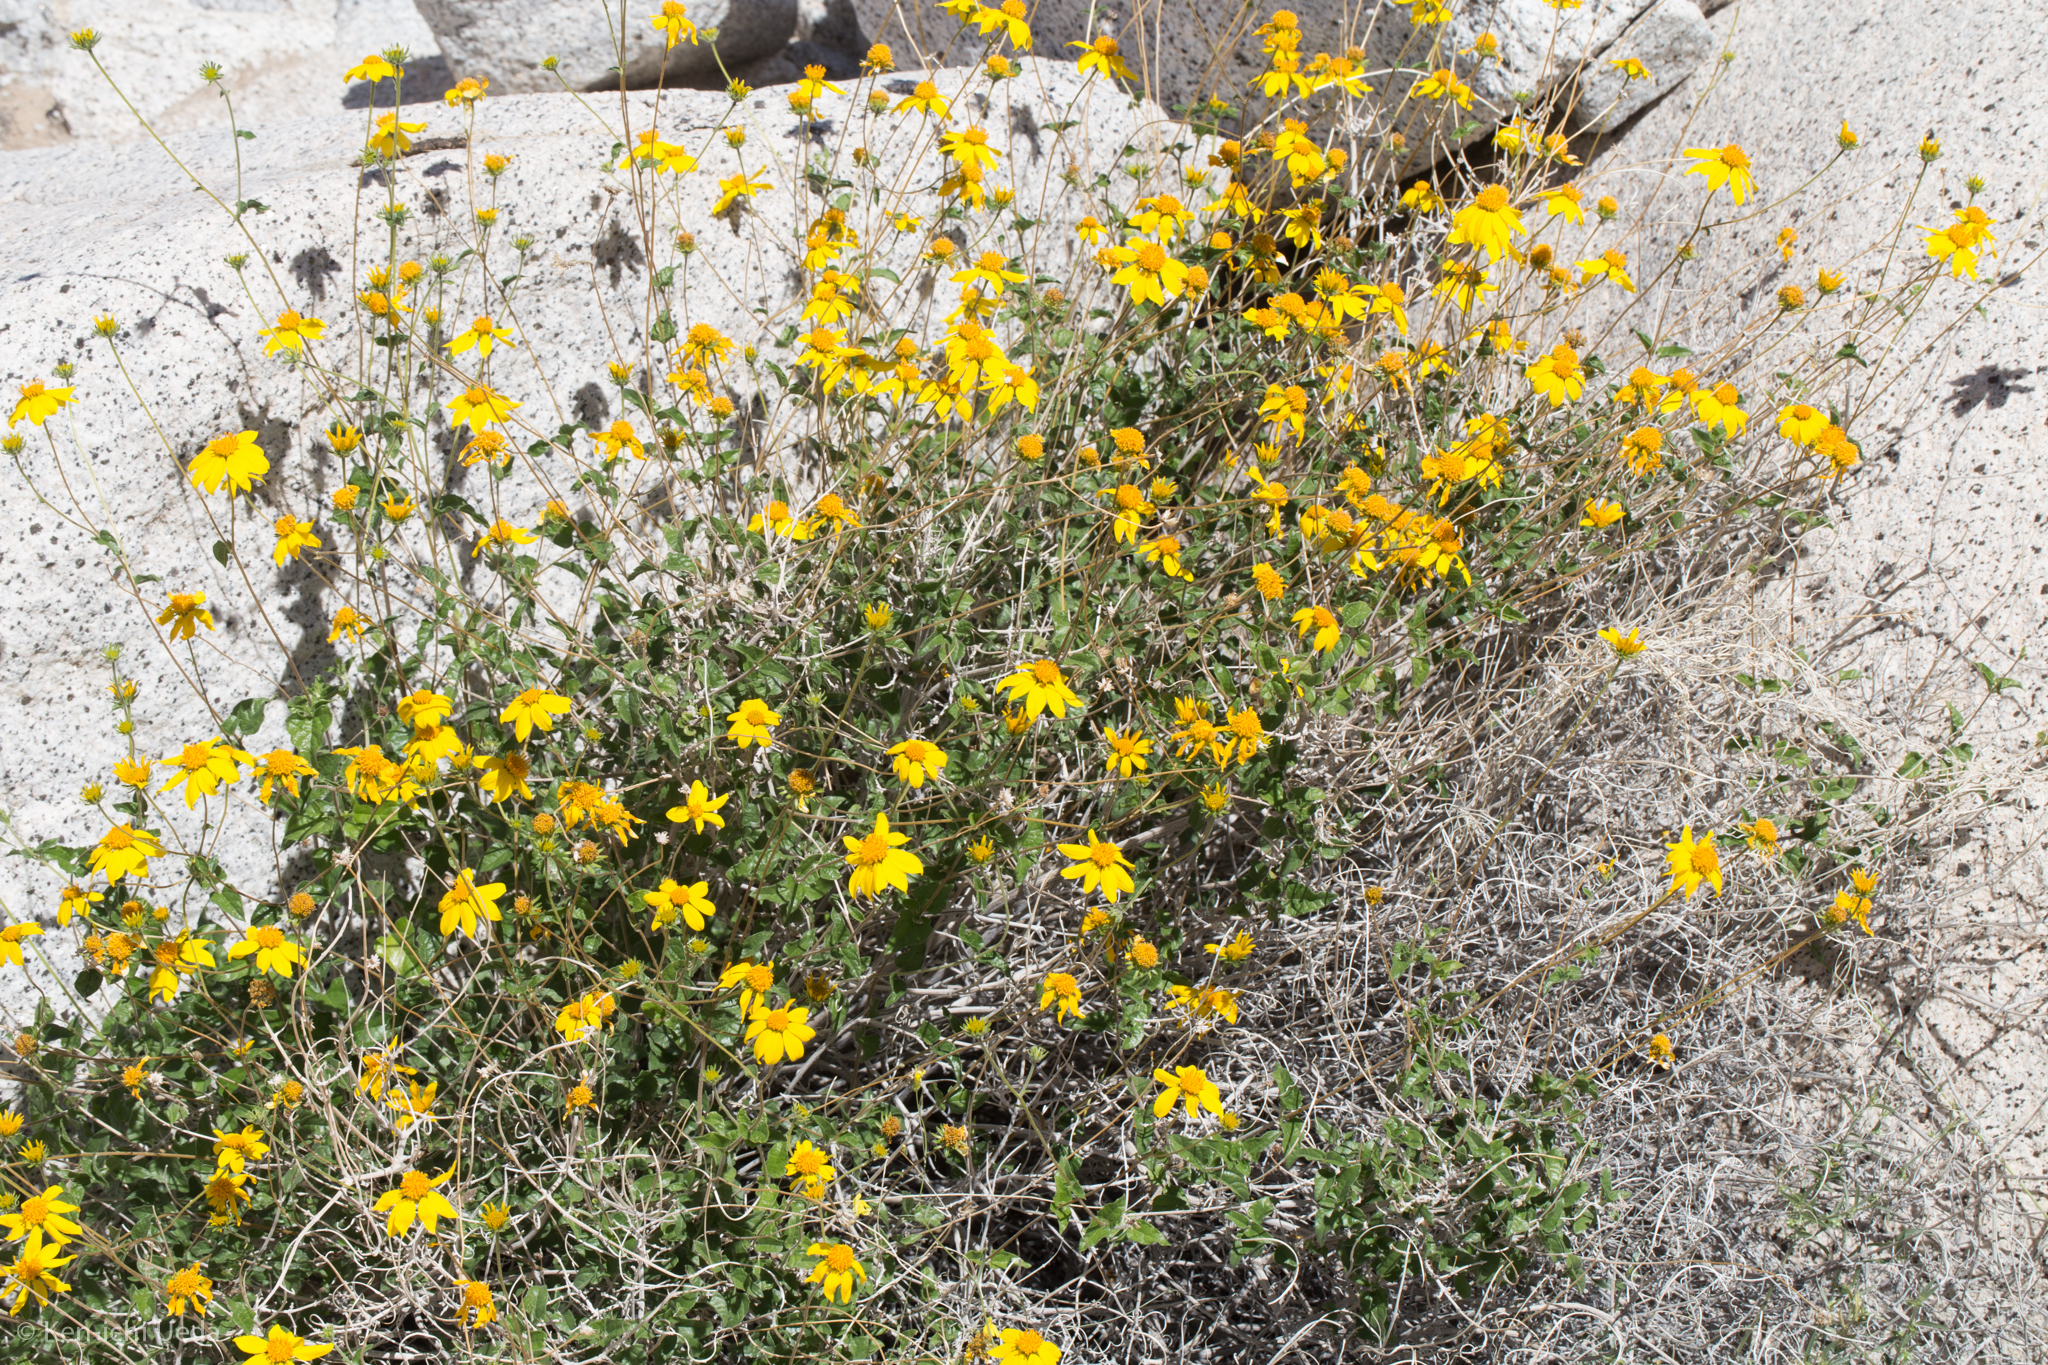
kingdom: Plantae
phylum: Tracheophyta
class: Magnoliopsida
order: Asterales
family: Asteraceae
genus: Bahiopsis
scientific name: Bahiopsis parishii
